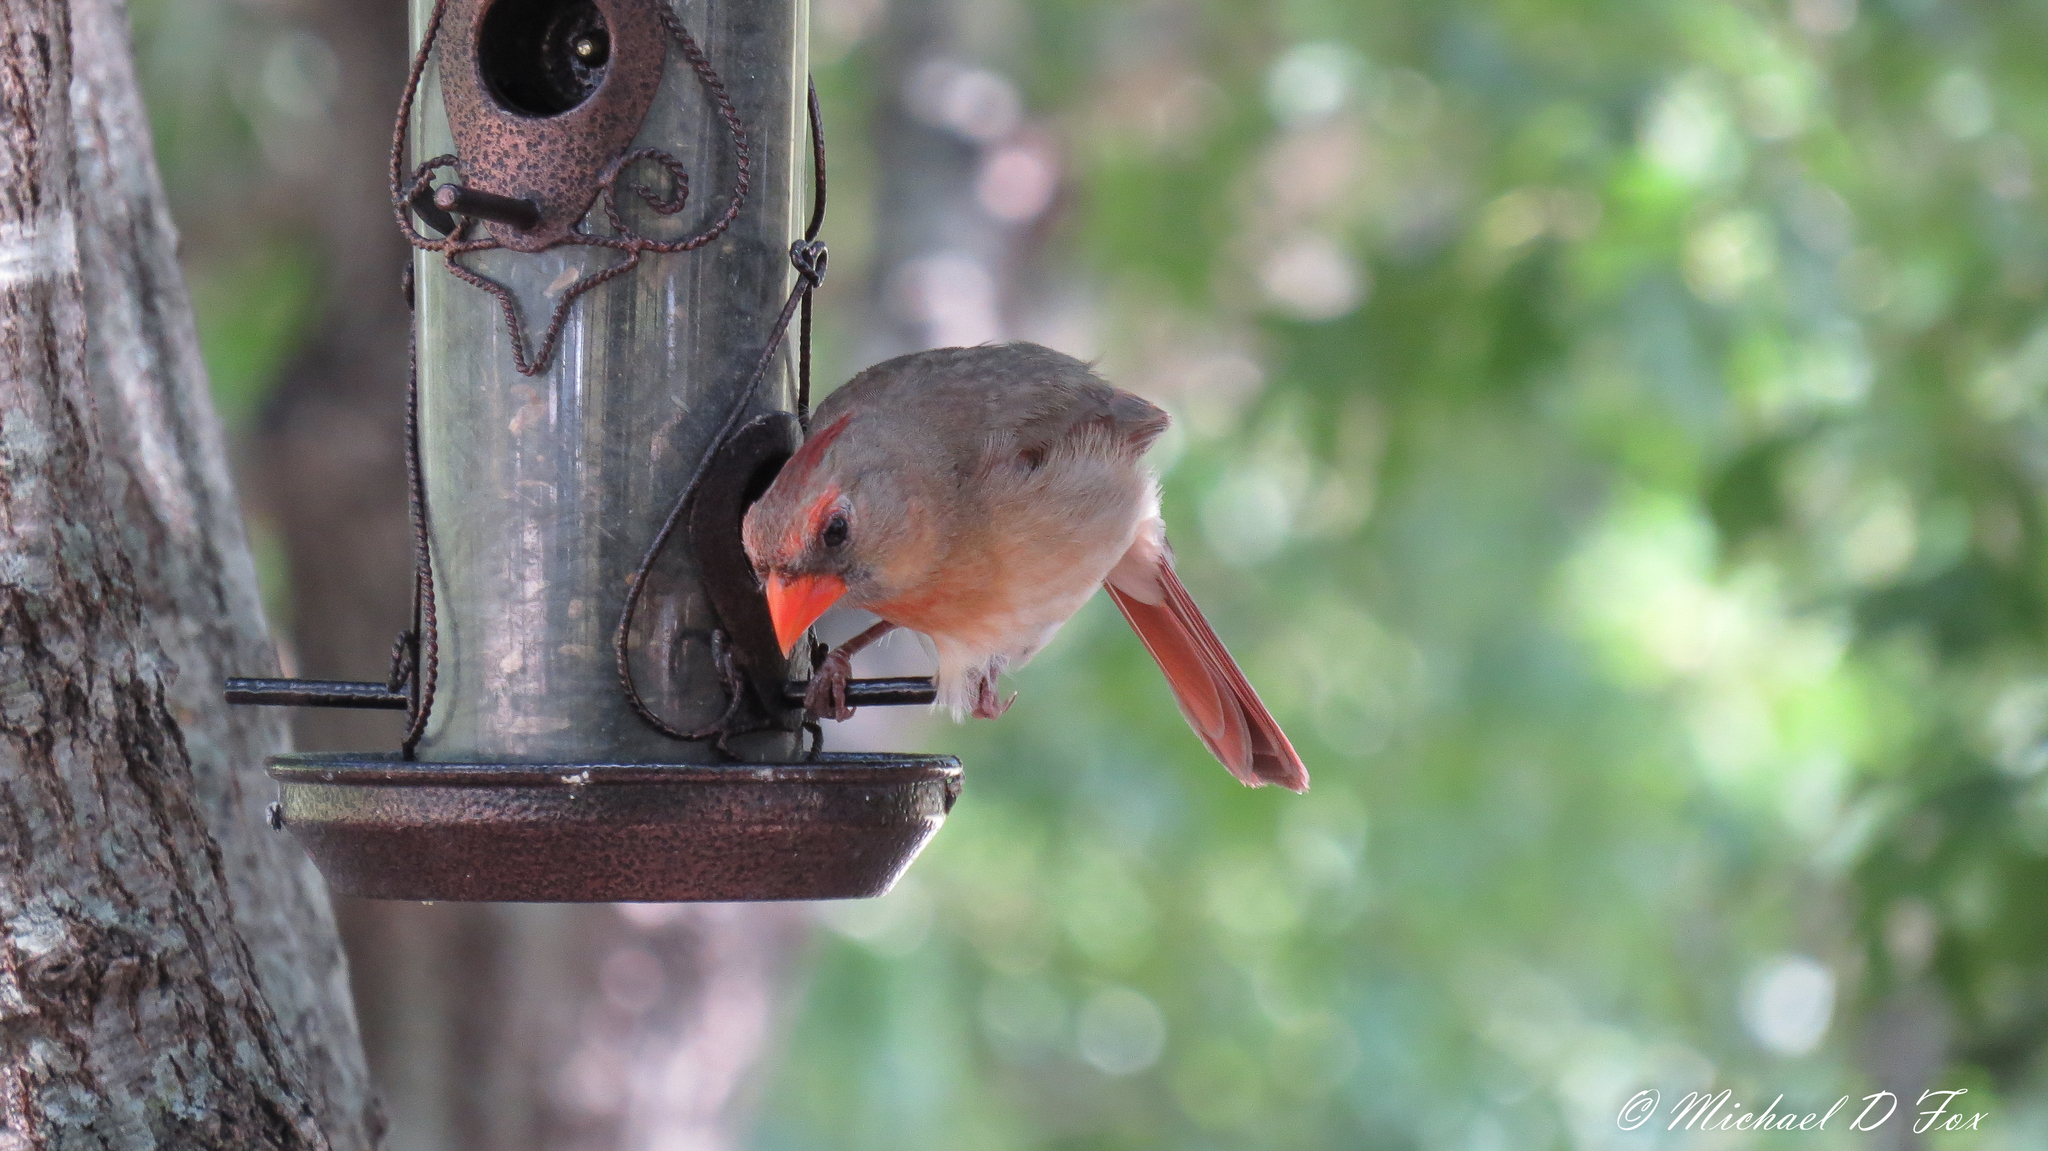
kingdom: Animalia
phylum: Chordata
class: Aves
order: Passeriformes
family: Cardinalidae
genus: Cardinalis
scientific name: Cardinalis cardinalis
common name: Northern cardinal
